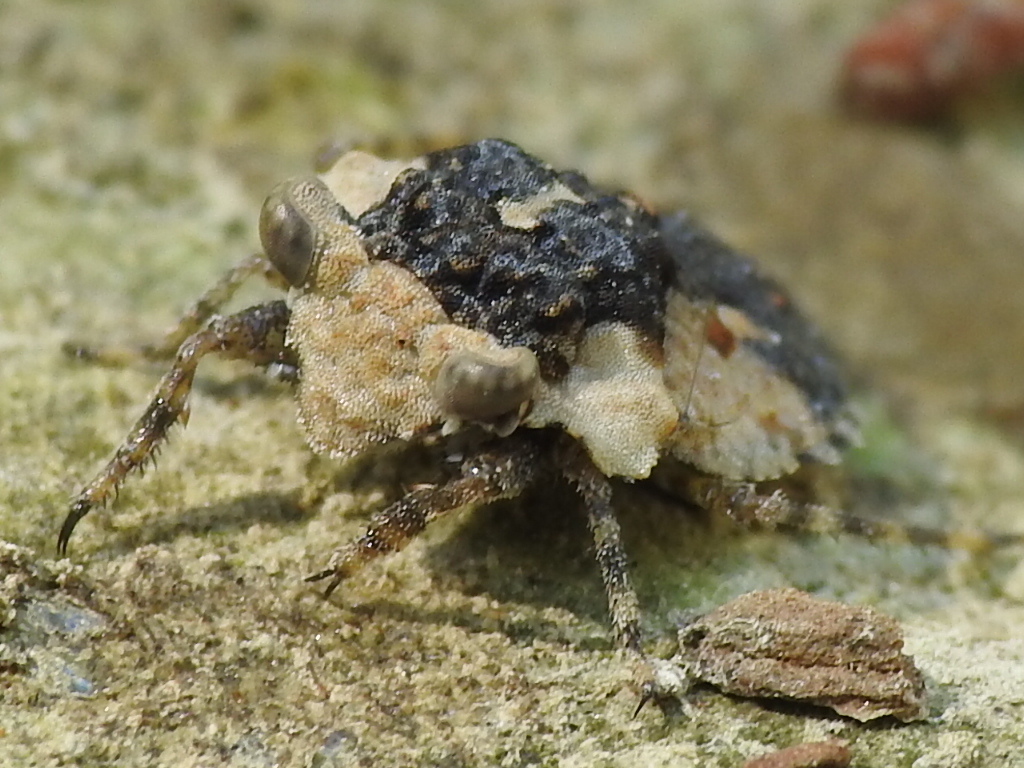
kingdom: Animalia
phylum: Arthropoda
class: Insecta
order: Hemiptera
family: Gelastocoridae
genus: Gelastocoris
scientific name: Gelastocoris oculatus
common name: Toad bug
